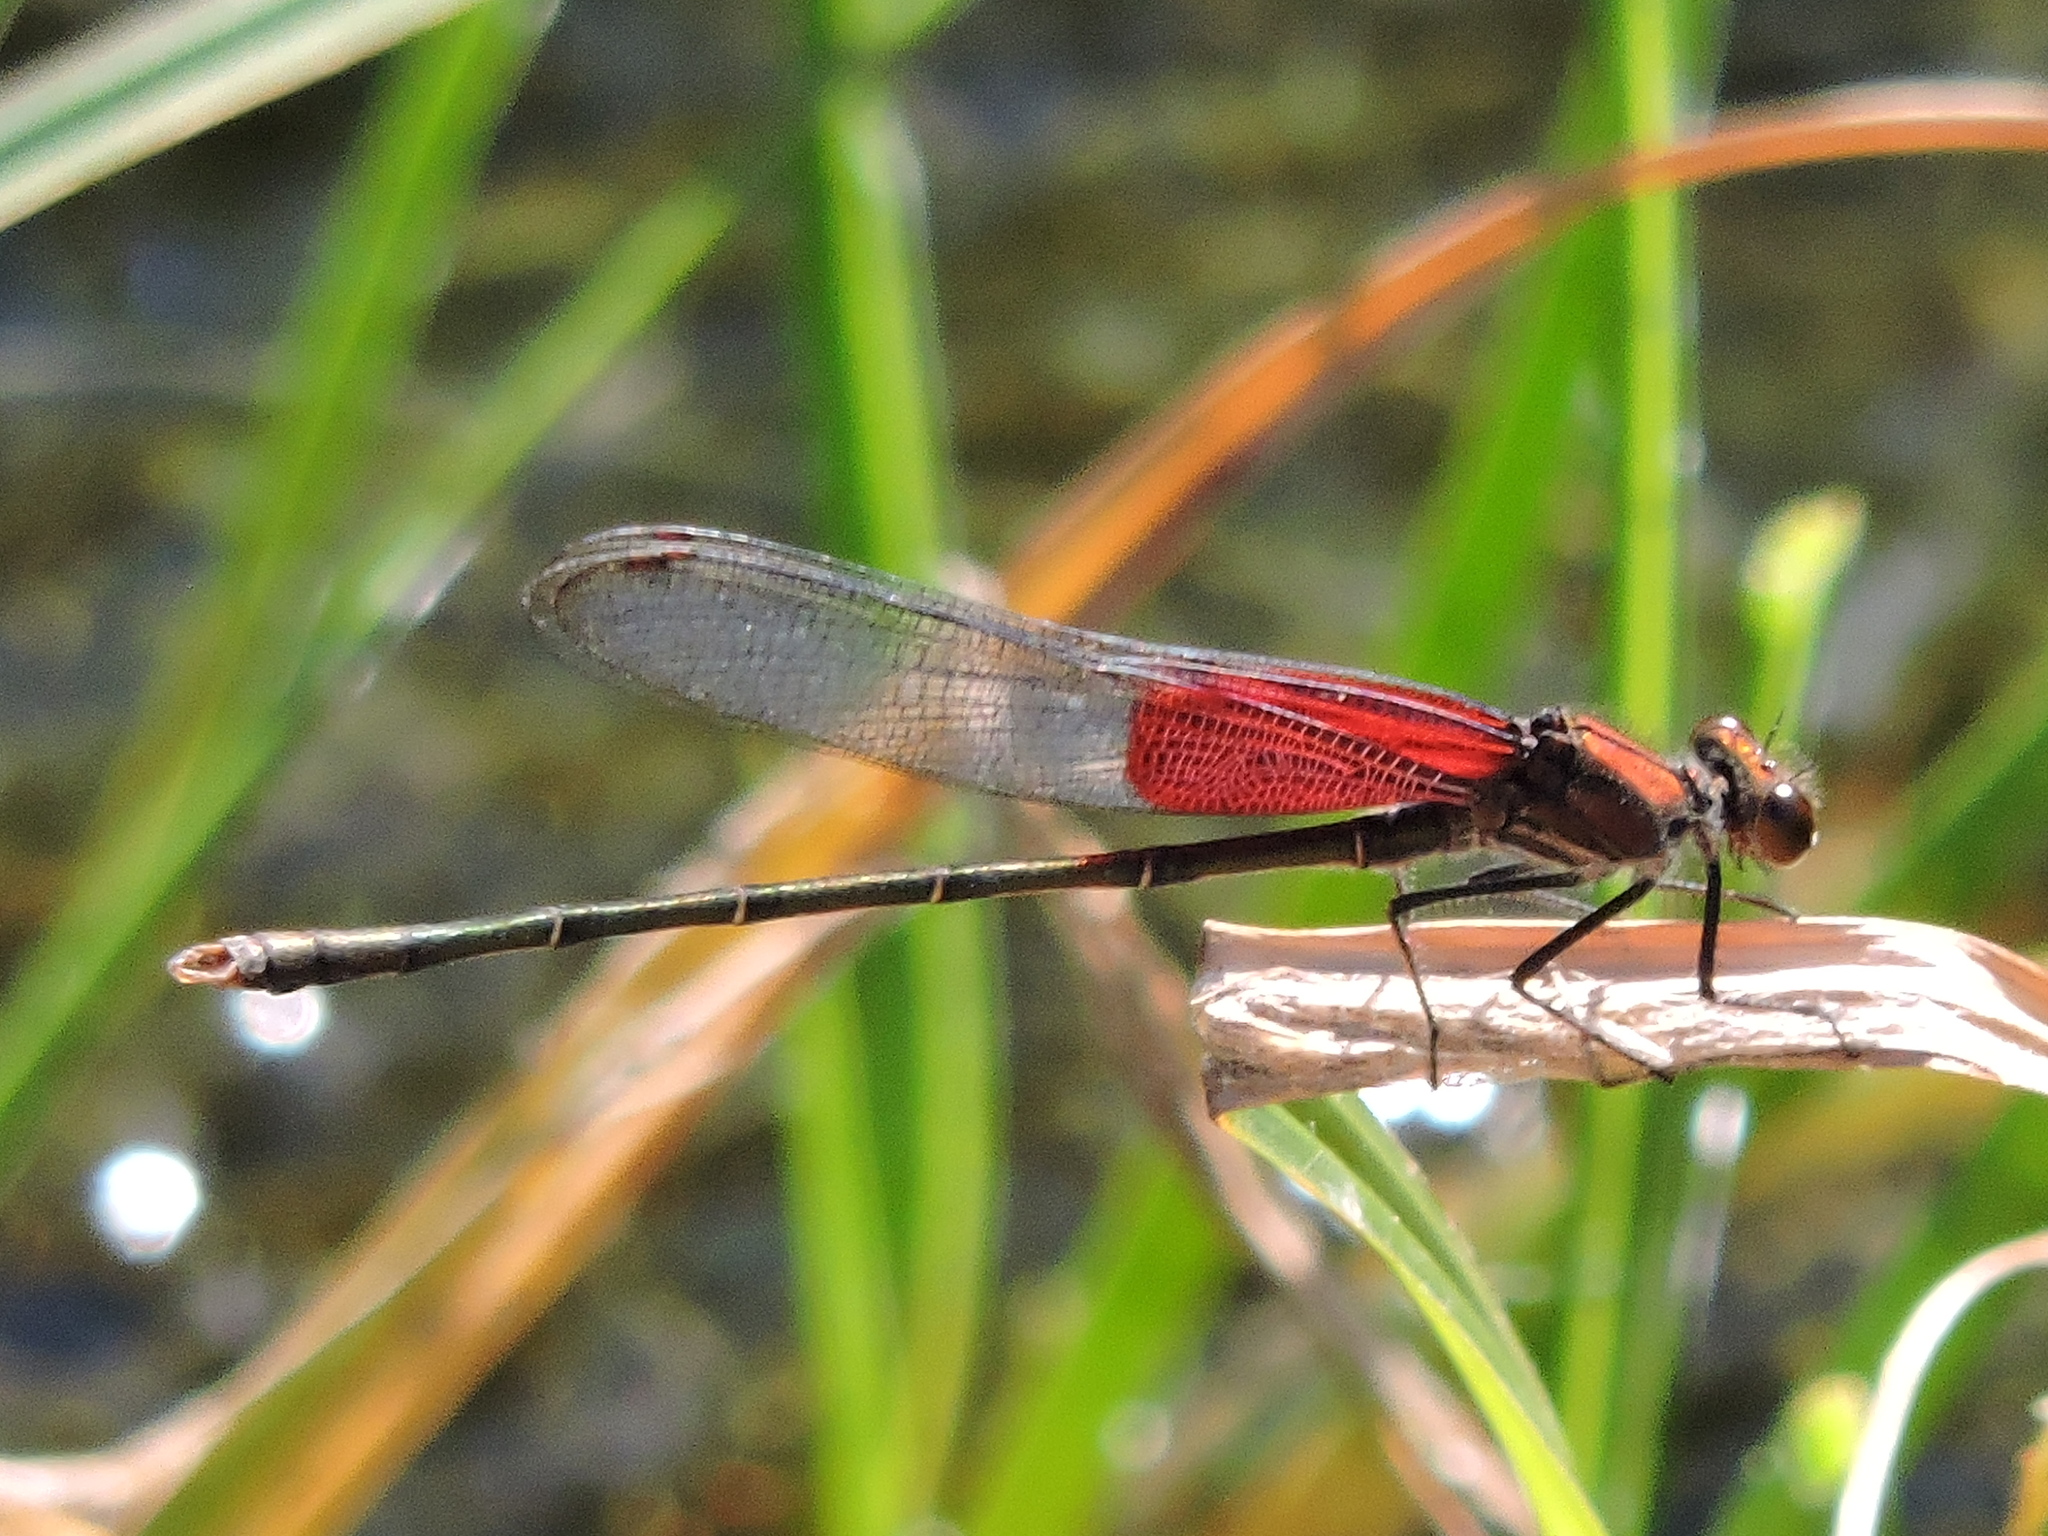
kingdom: Animalia
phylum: Arthropoda
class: Insecta
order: Odonata
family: Calopterygidae
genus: Hetaerina
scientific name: Hetaerina americana
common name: American rubyspot
